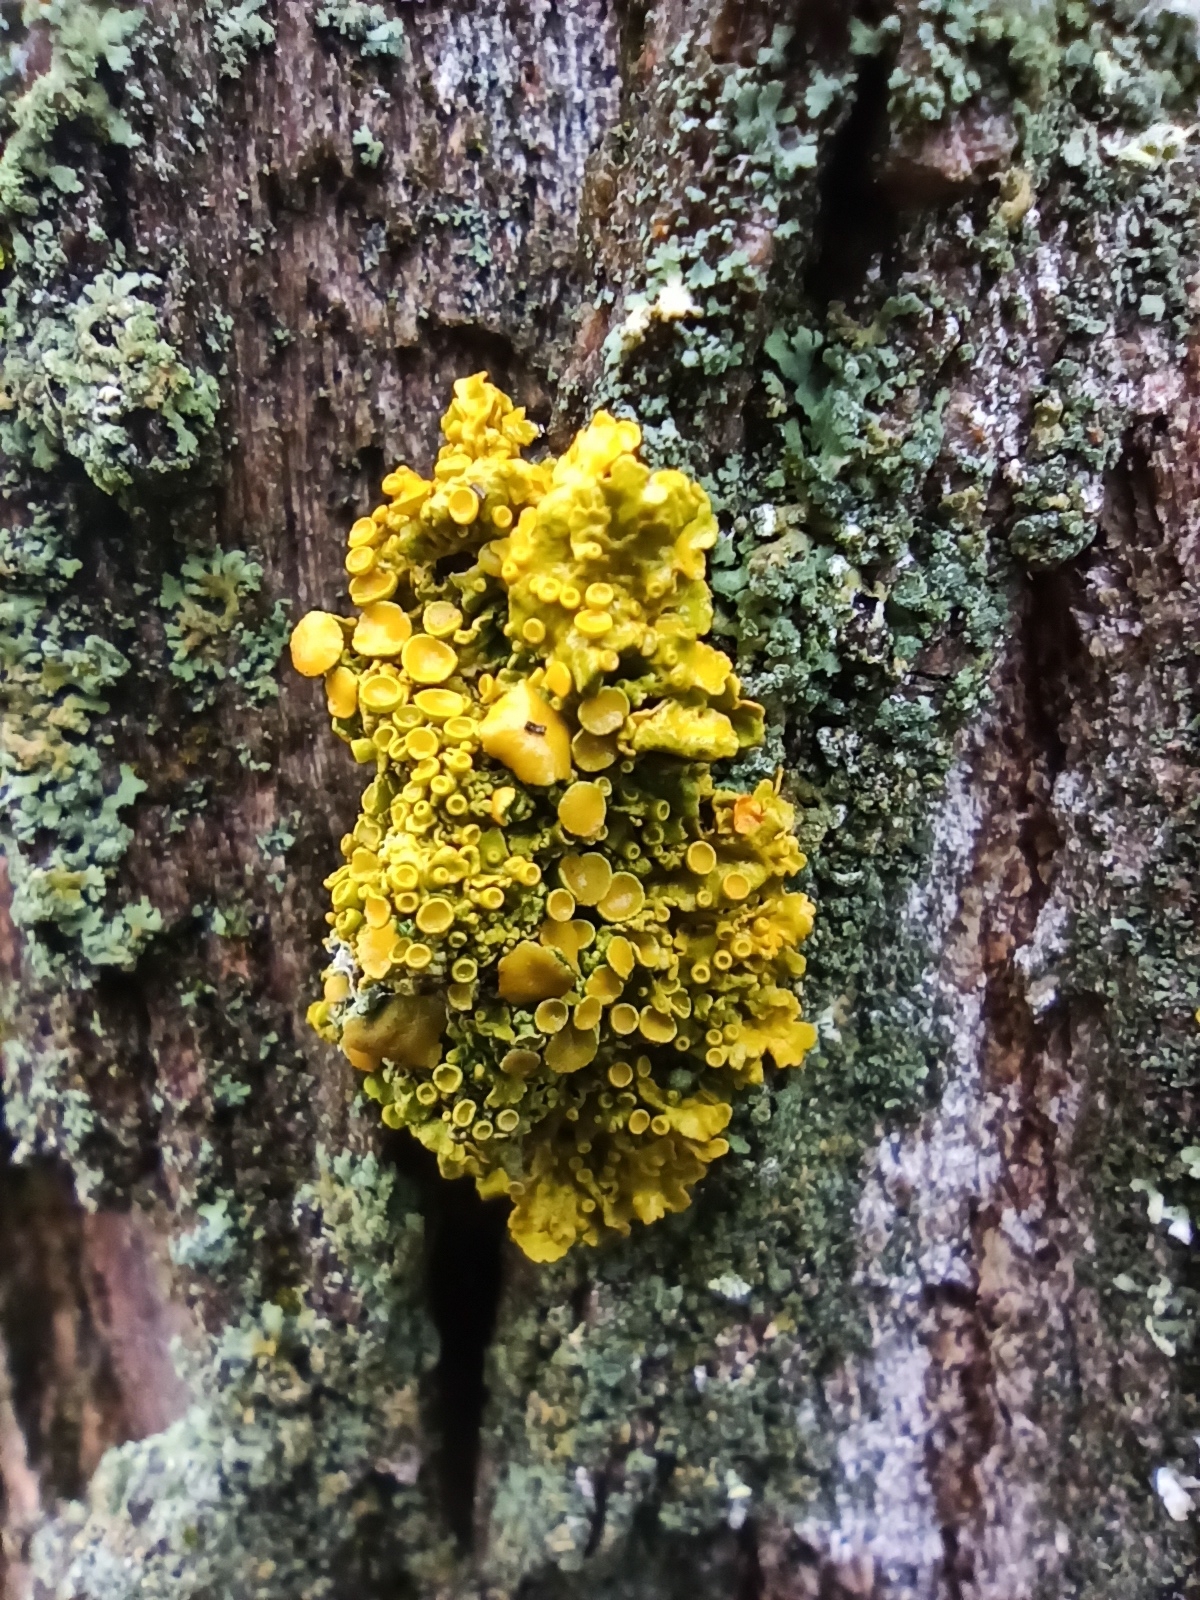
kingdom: Fungi
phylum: Ascomycota
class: Lecanoromycetes
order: Teloschistales
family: Teloschistaceae
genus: Xanthoria
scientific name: Xanthoria parietina
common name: Common orange lichen
